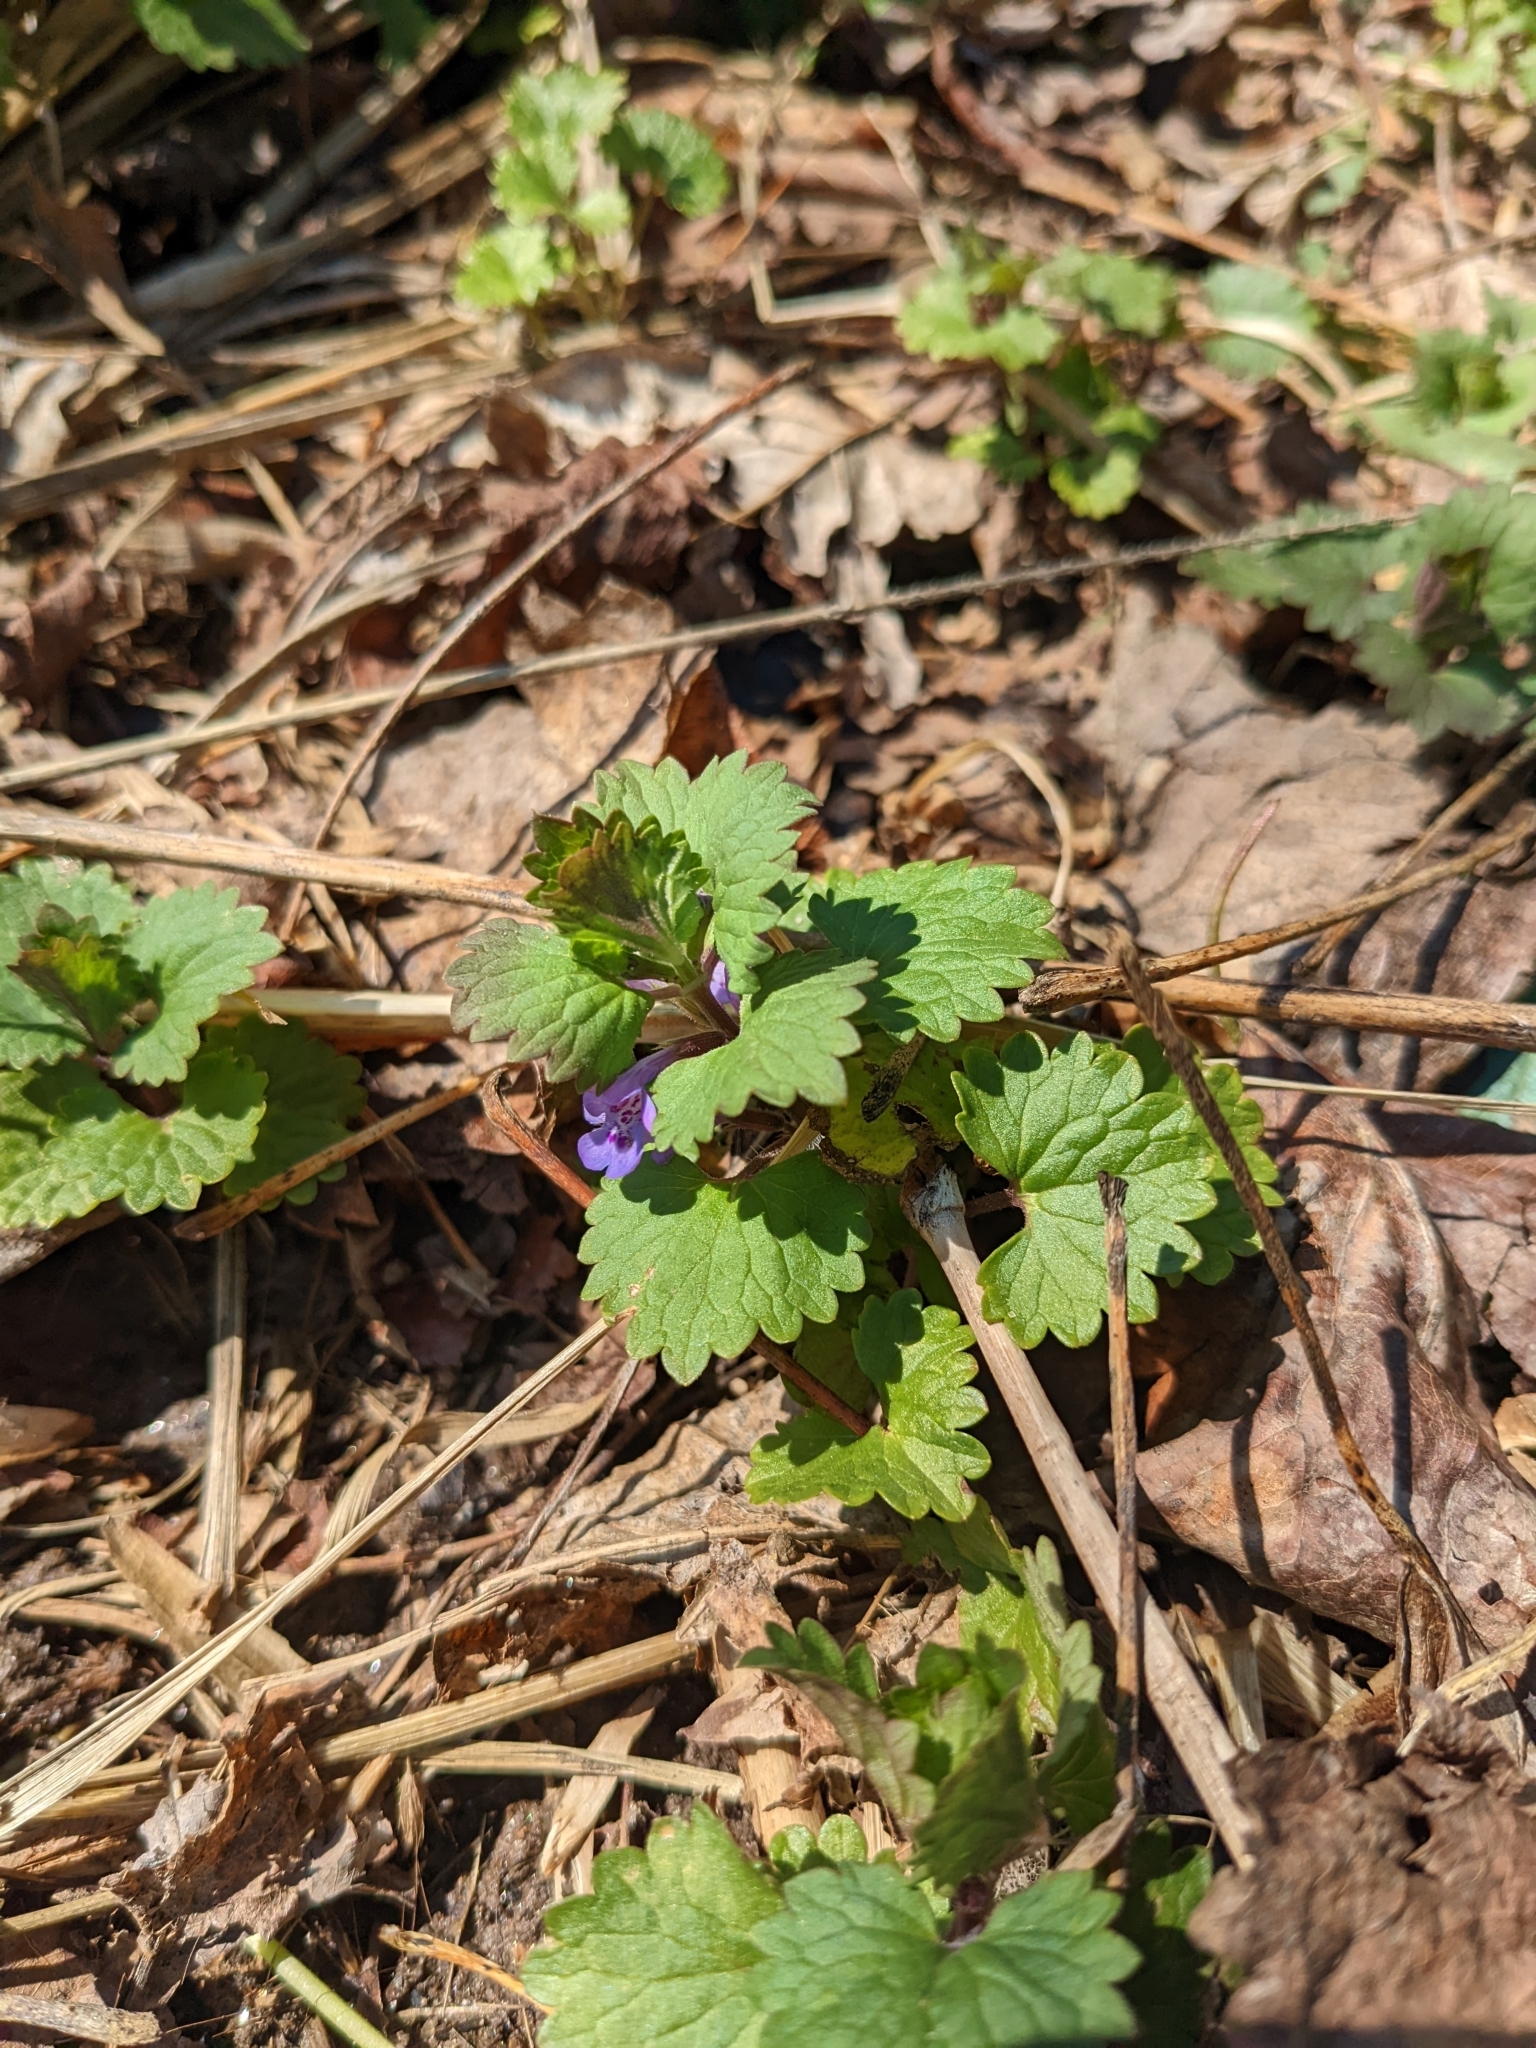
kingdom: Plantae
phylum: Tracheophyta
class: Magnoliopsida
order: Lamiales
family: Lamiaceae
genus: Glechoma
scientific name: Glechoma hederacea
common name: Ground ivy
